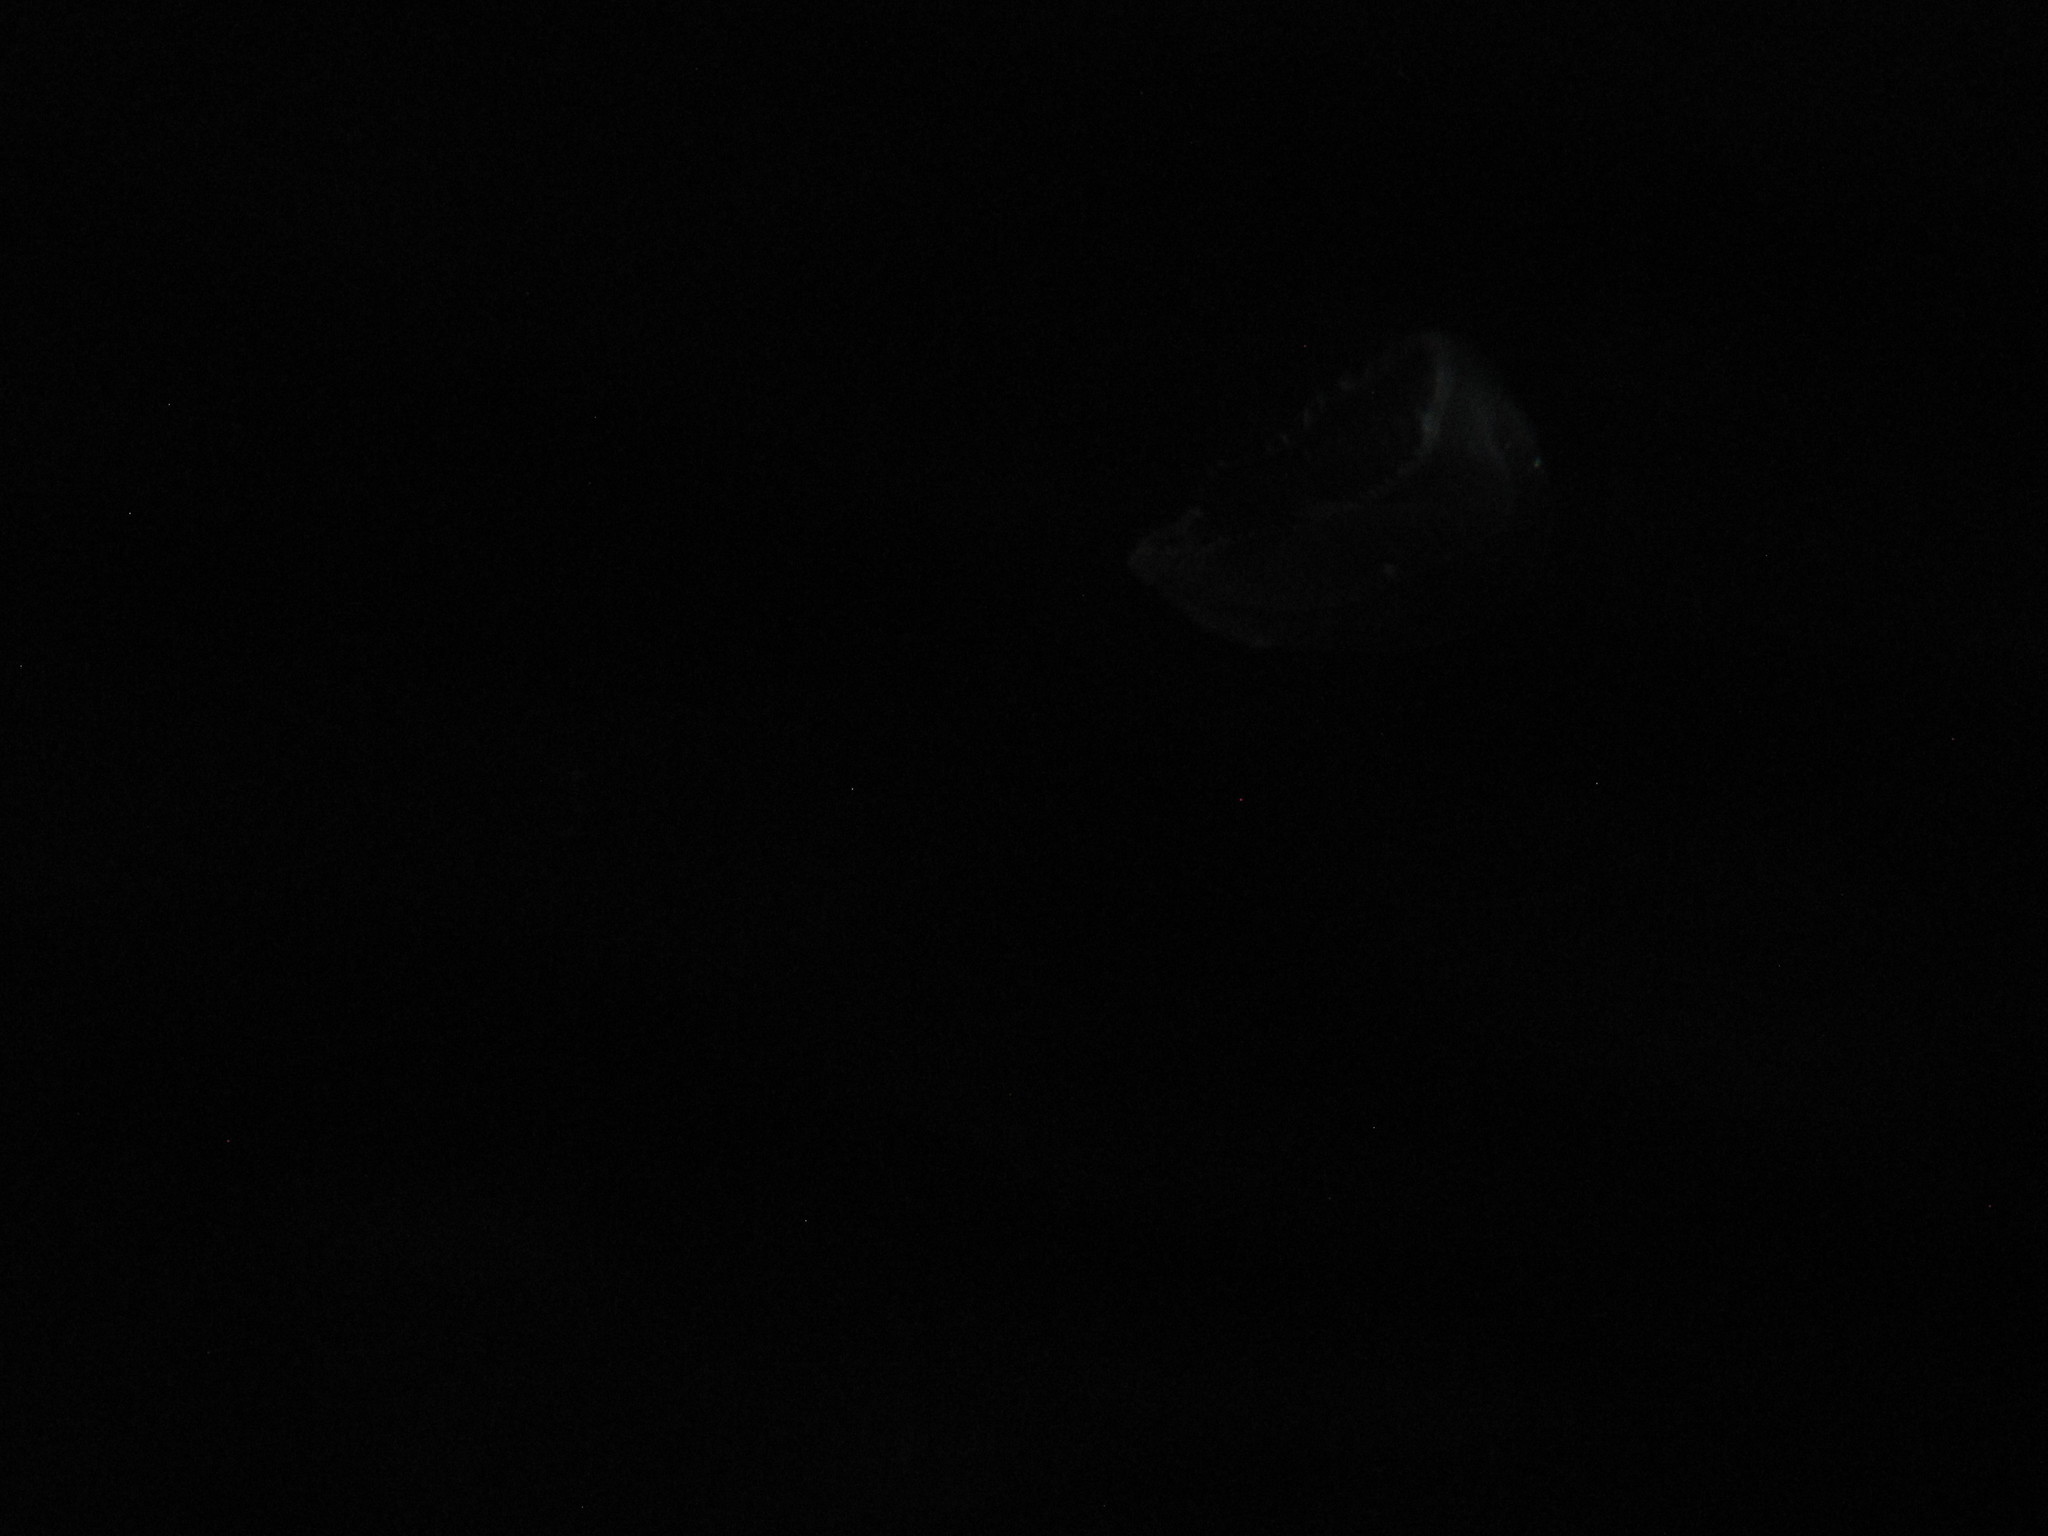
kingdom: Animalia
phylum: Cnidaria
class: Hydrozoa
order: Leptothecata
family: Aequoreidae
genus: Aequorea
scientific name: Aequorea victoria
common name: Water jellyfish
